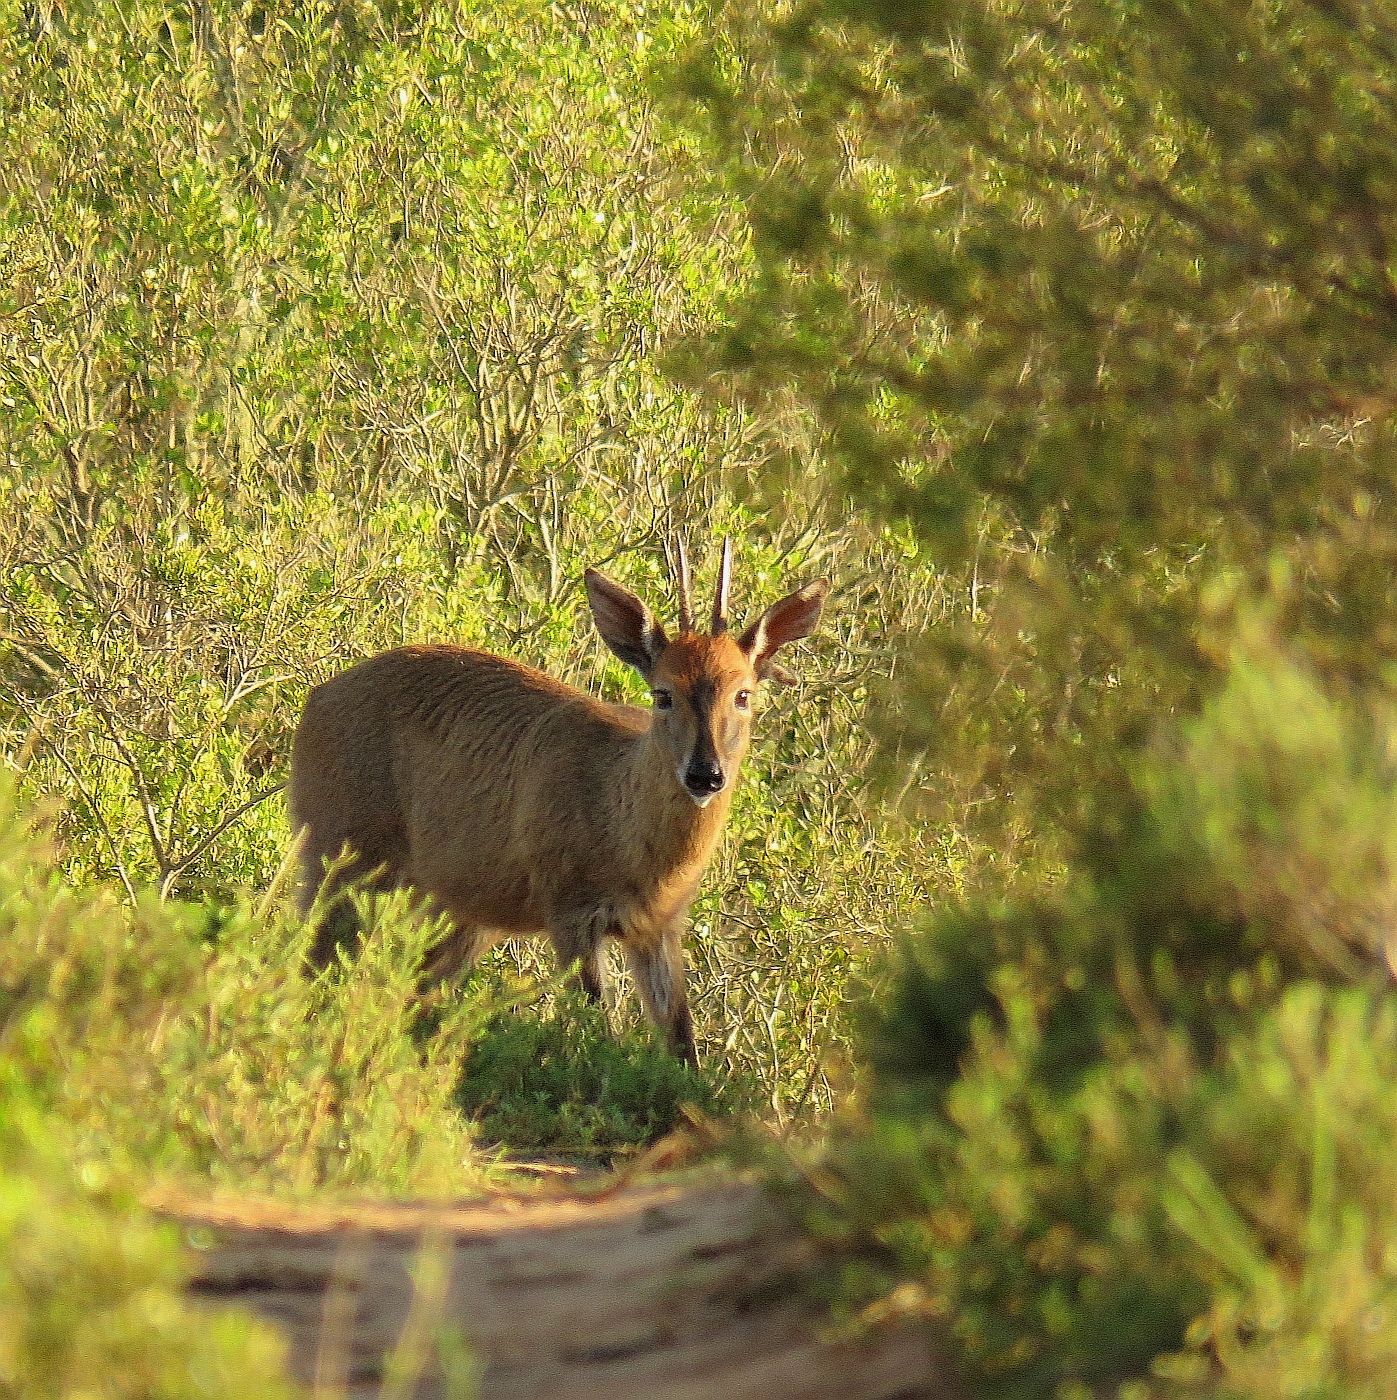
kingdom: Animalia
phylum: Chordata
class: Mammalia
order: Artiodactyla
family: Bovidae
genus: Sylvicapra
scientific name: Sylvicapra grimmia
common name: Bush duiker
